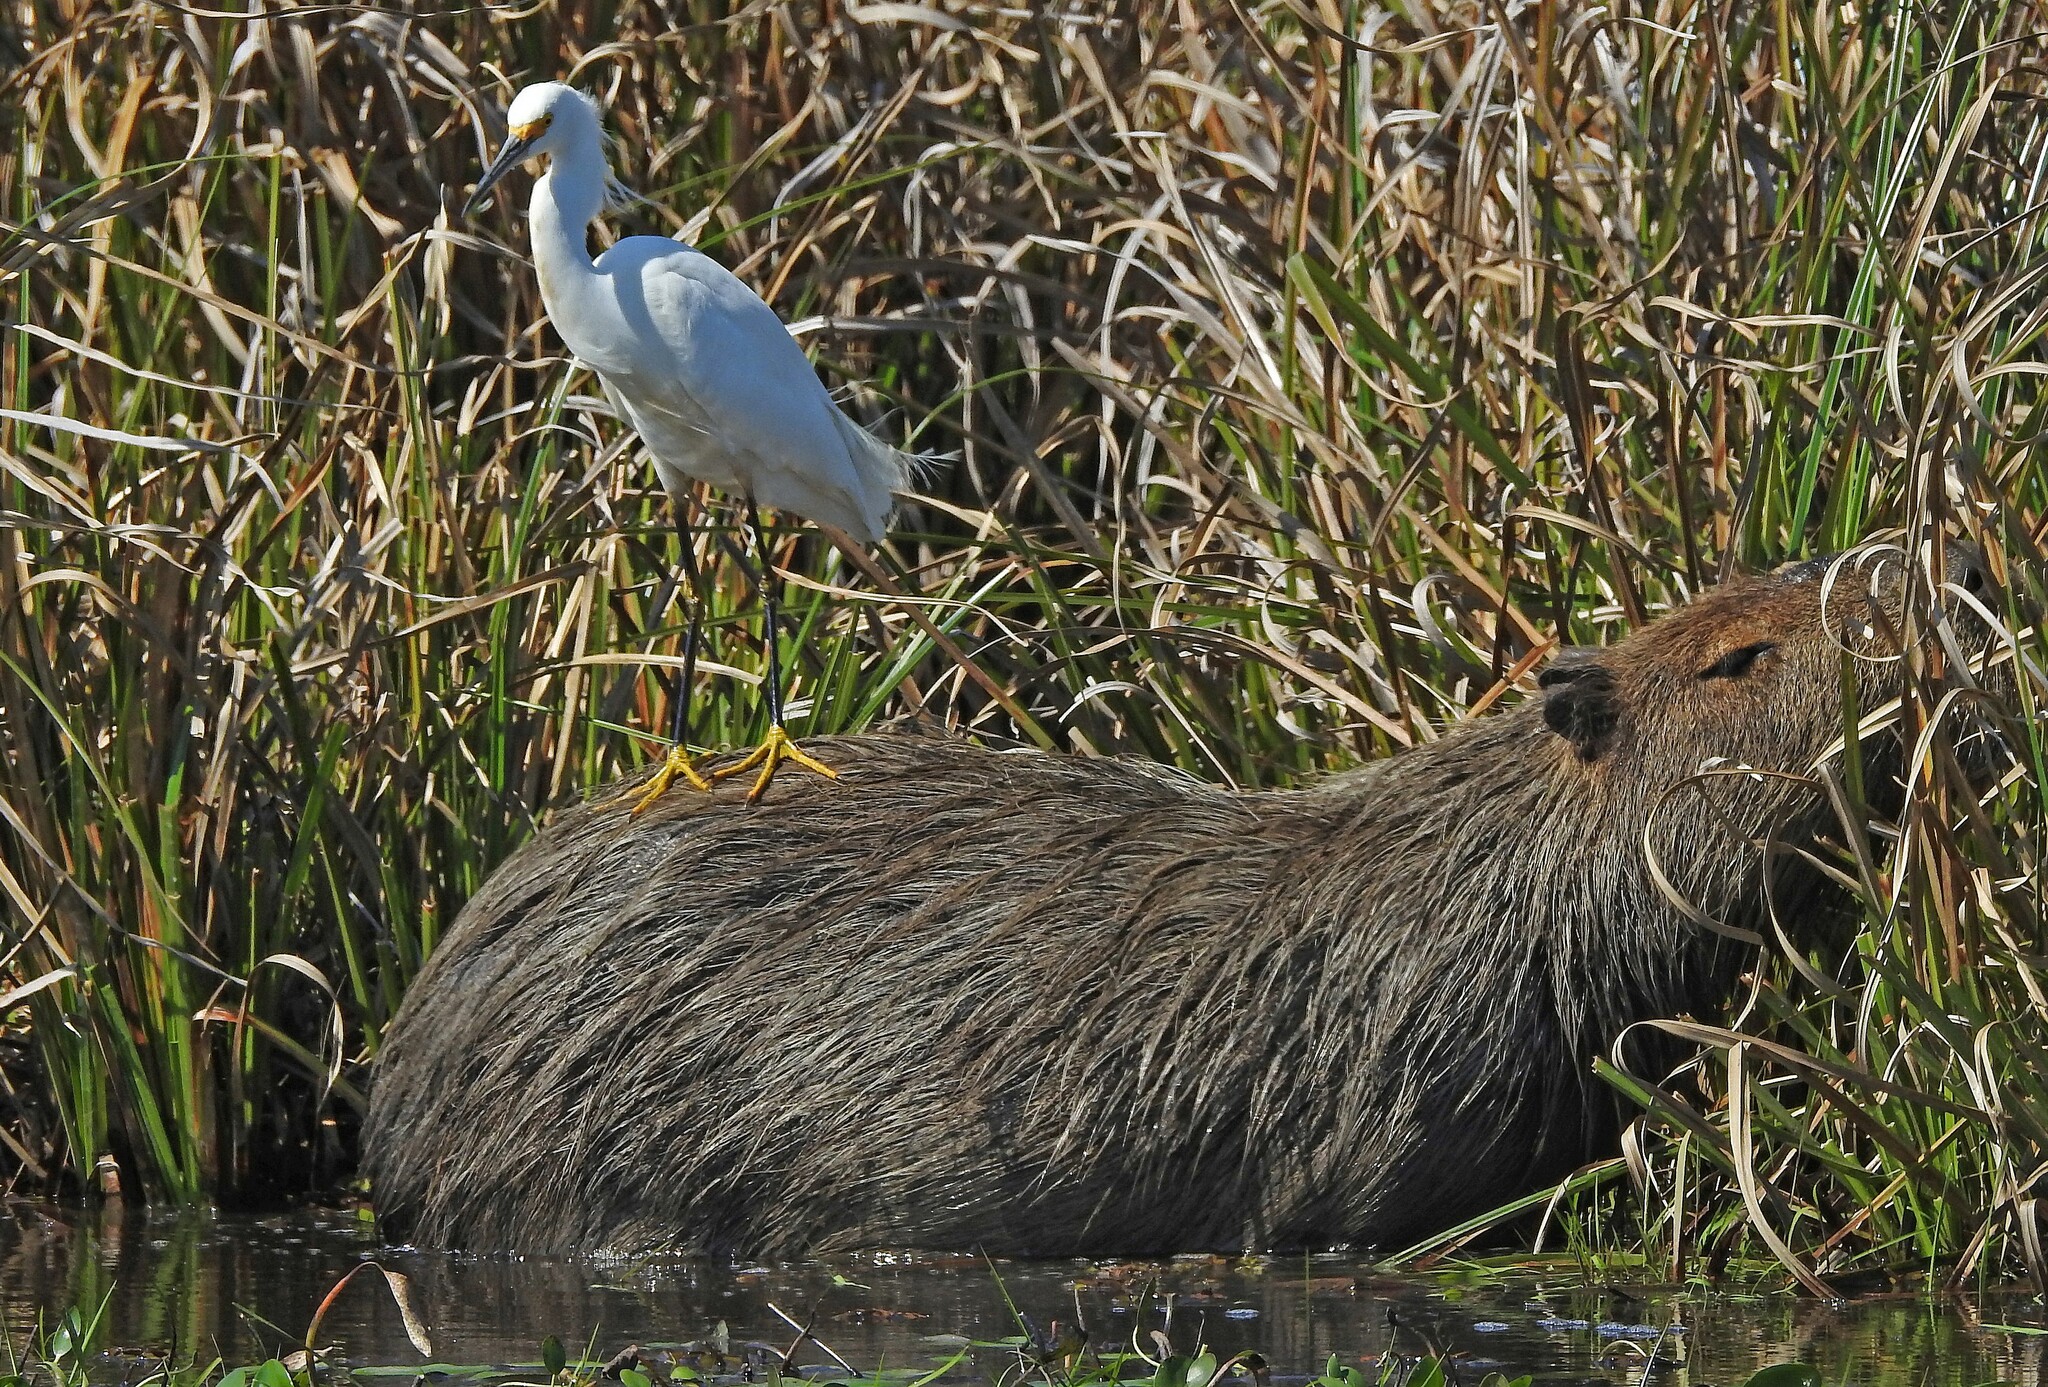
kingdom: Animalia
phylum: Chordata
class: Aves
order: Pelecaniformes
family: Ardeidae
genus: Egretta
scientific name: Egretta thula
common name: Snowy egret
